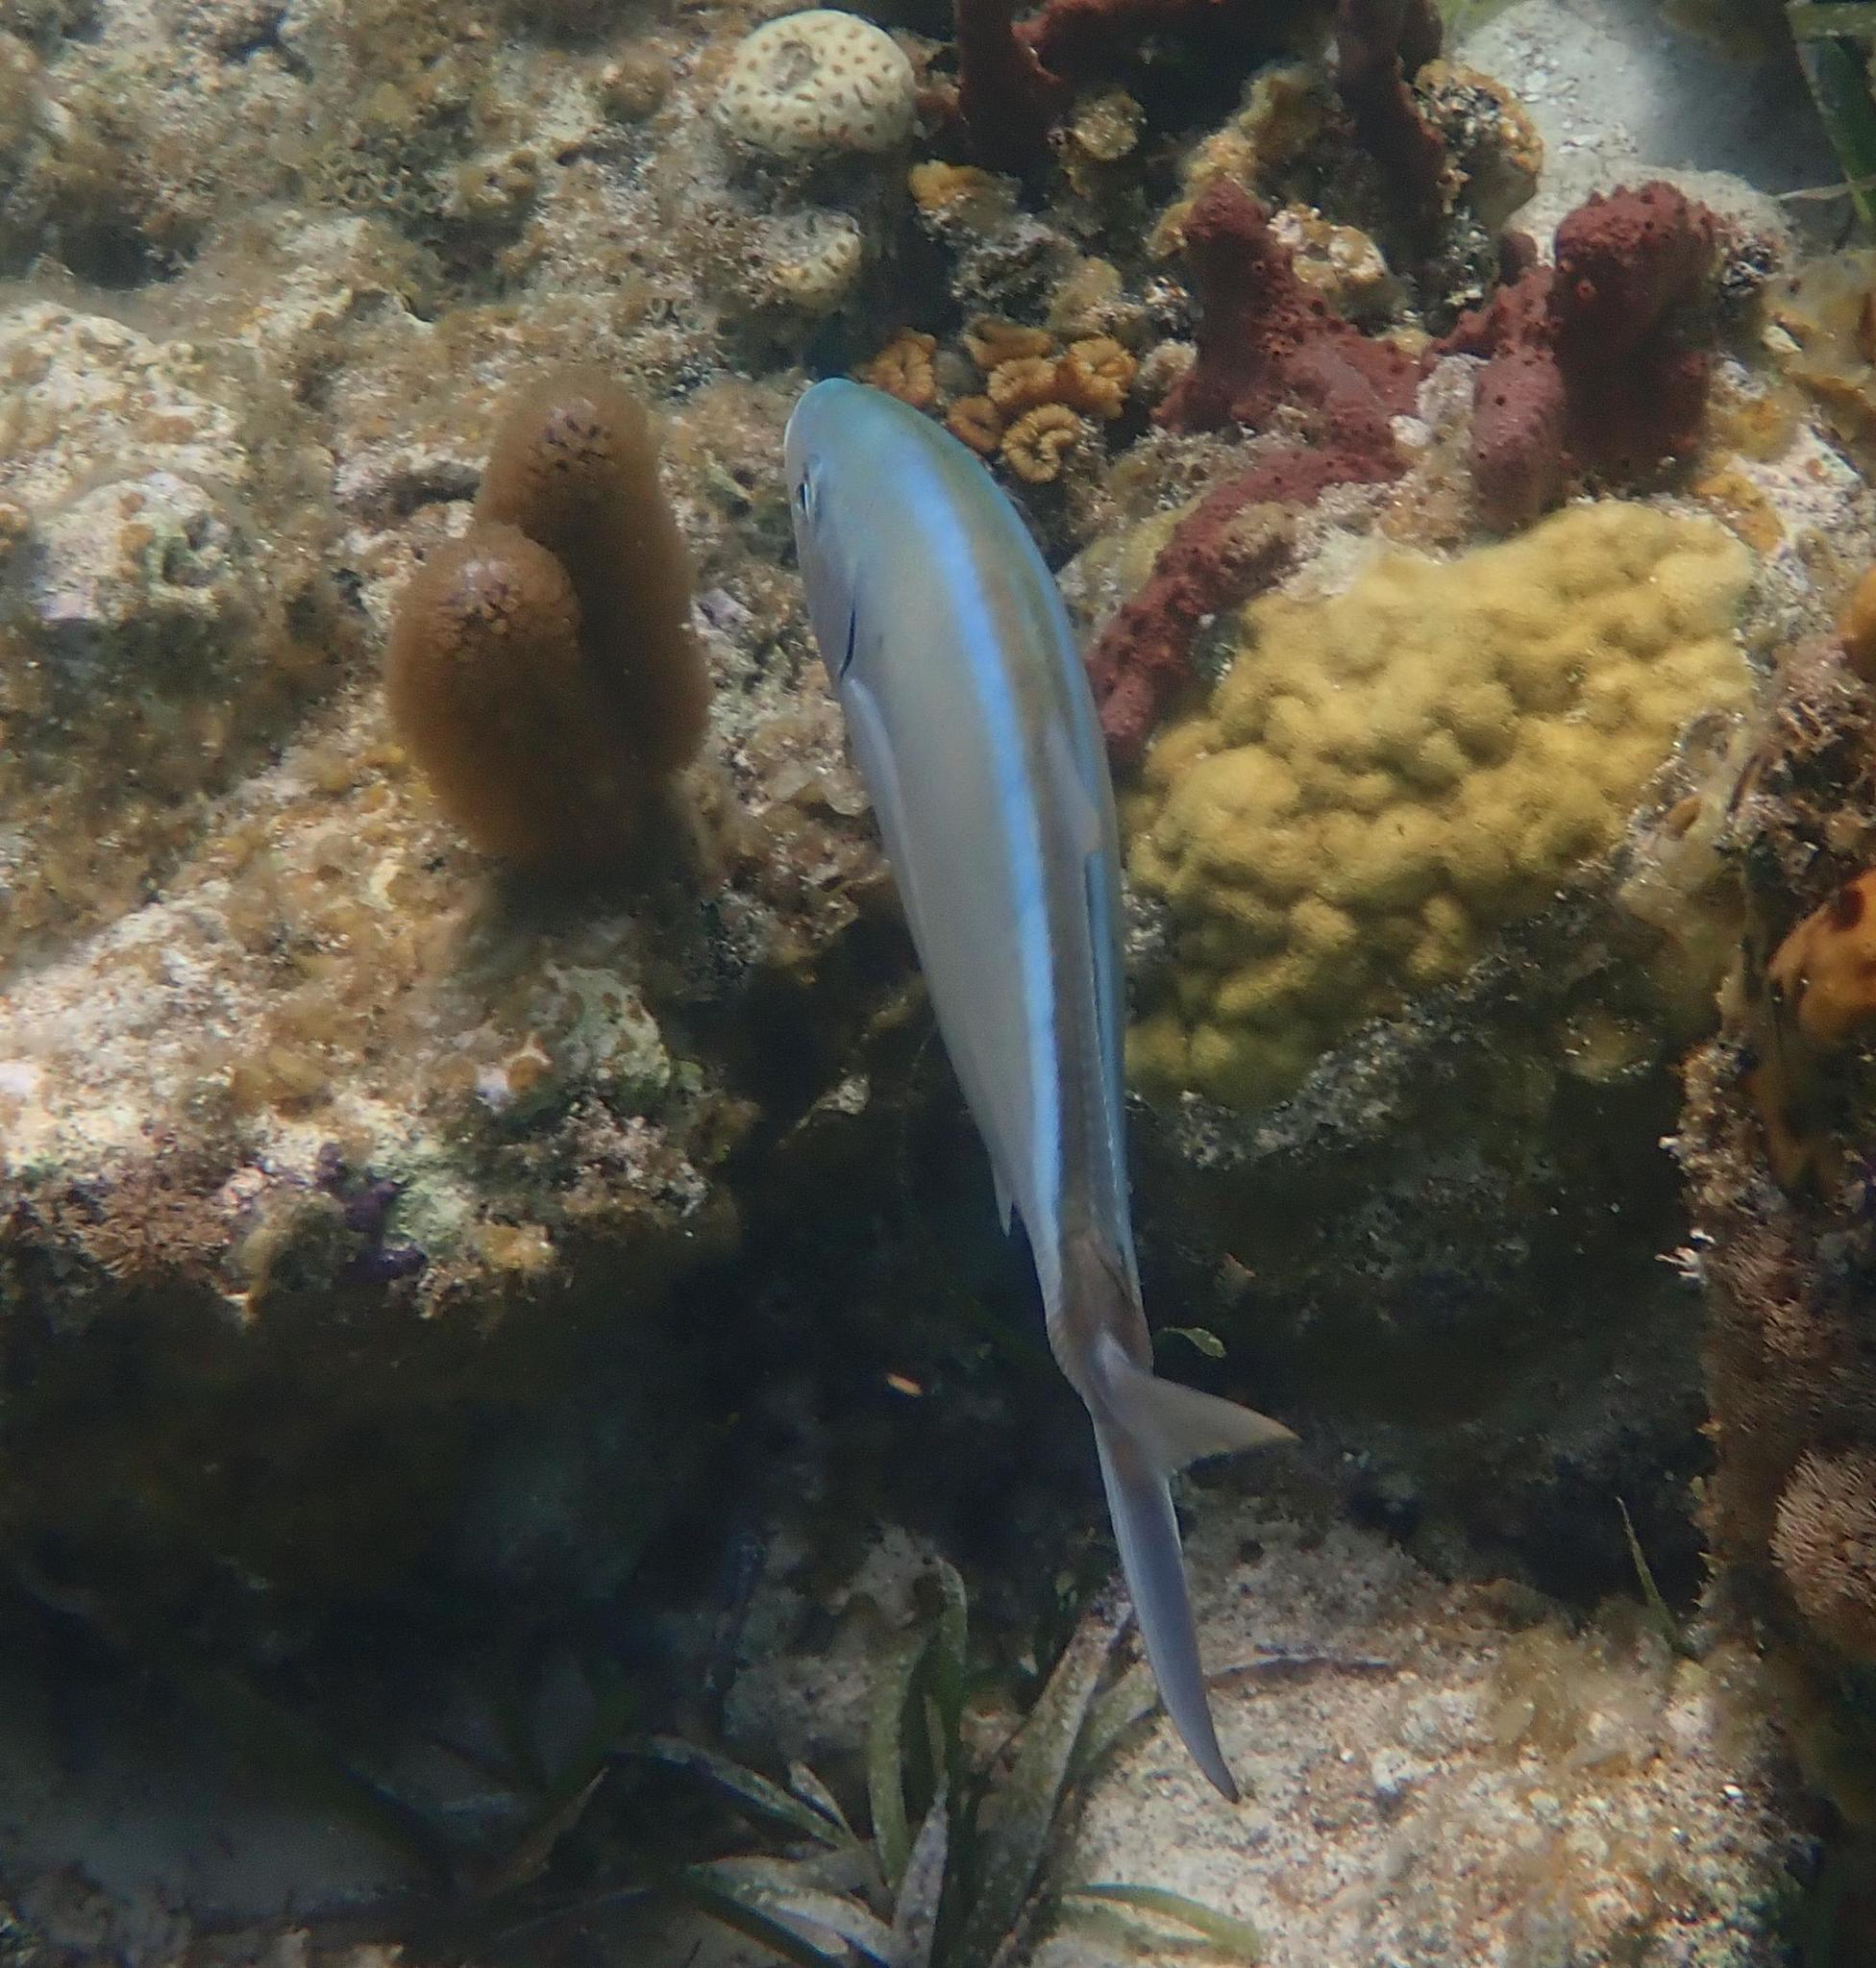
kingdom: Animalia
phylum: Chordata
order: Perciformes
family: Carangidae
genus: Caranx
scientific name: Caranx ruber
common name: Bar jack
